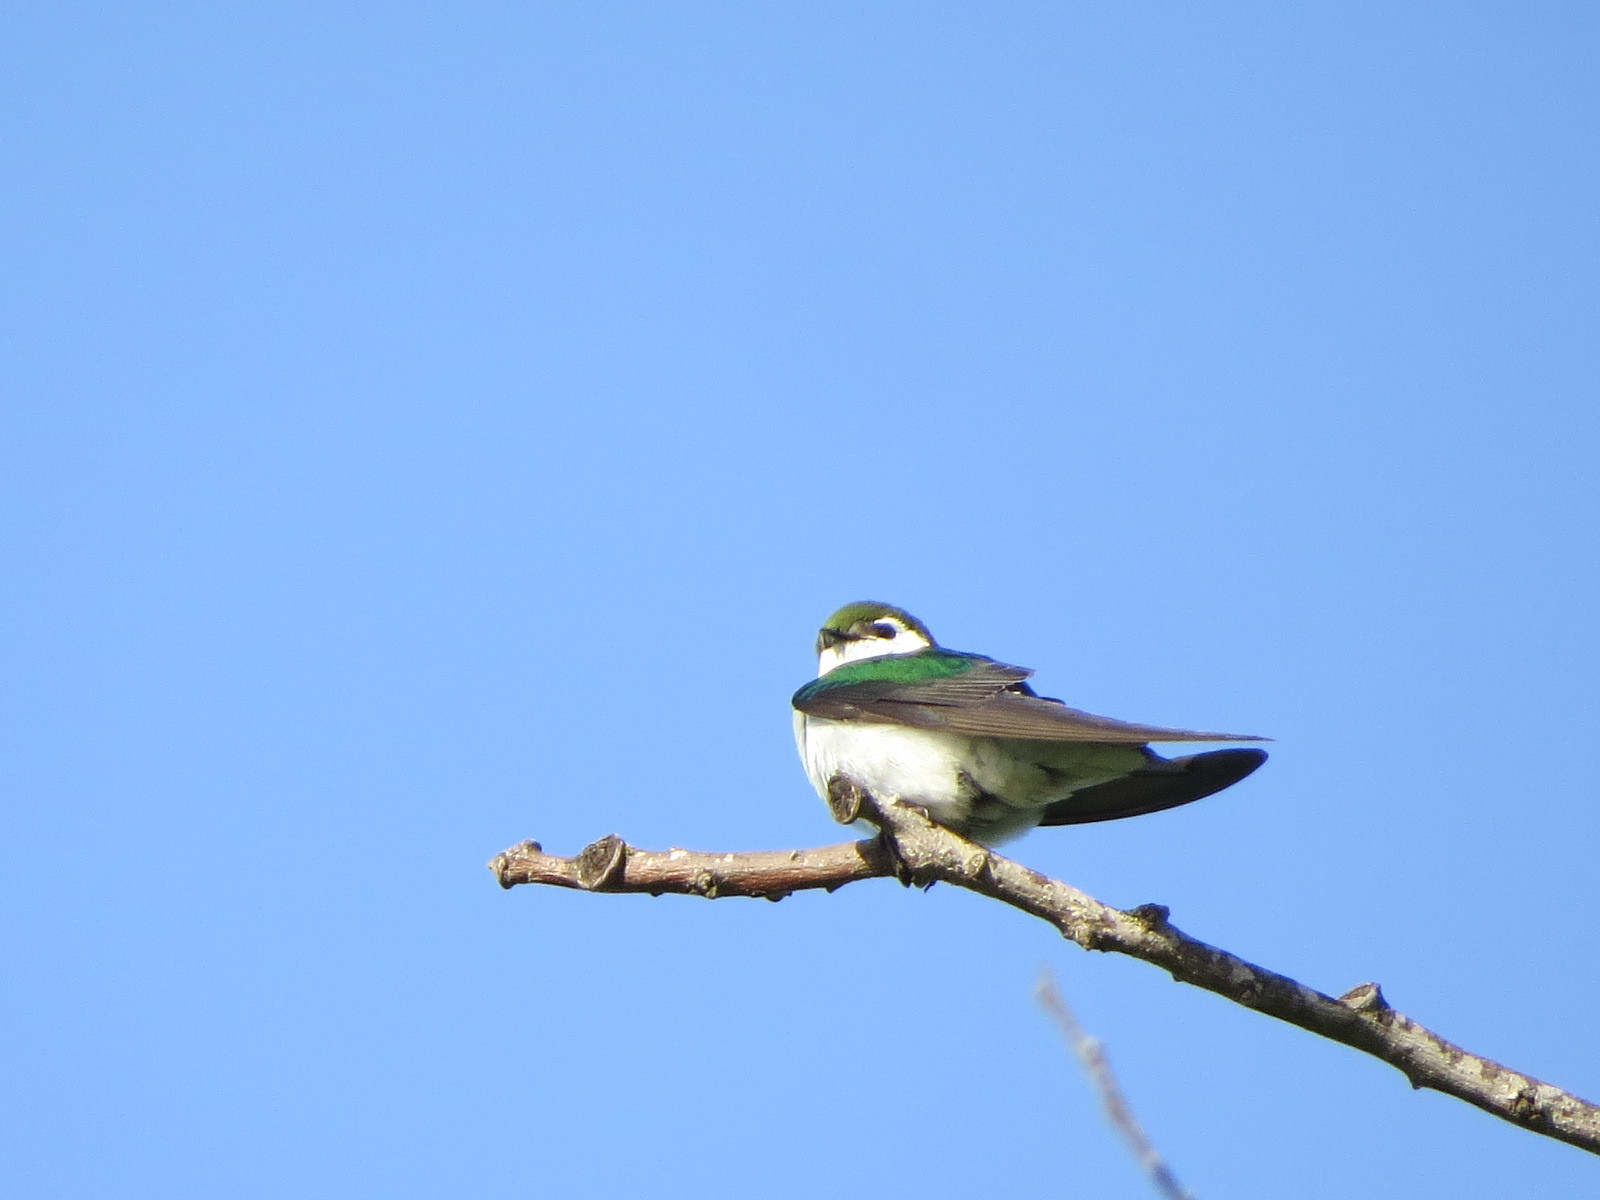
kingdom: Animalia
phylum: Chordata
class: Aves
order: Passeriformes
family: Hirundinidae
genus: Tachycineta
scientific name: Tachycineta thalassina
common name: Violet-green swallow
